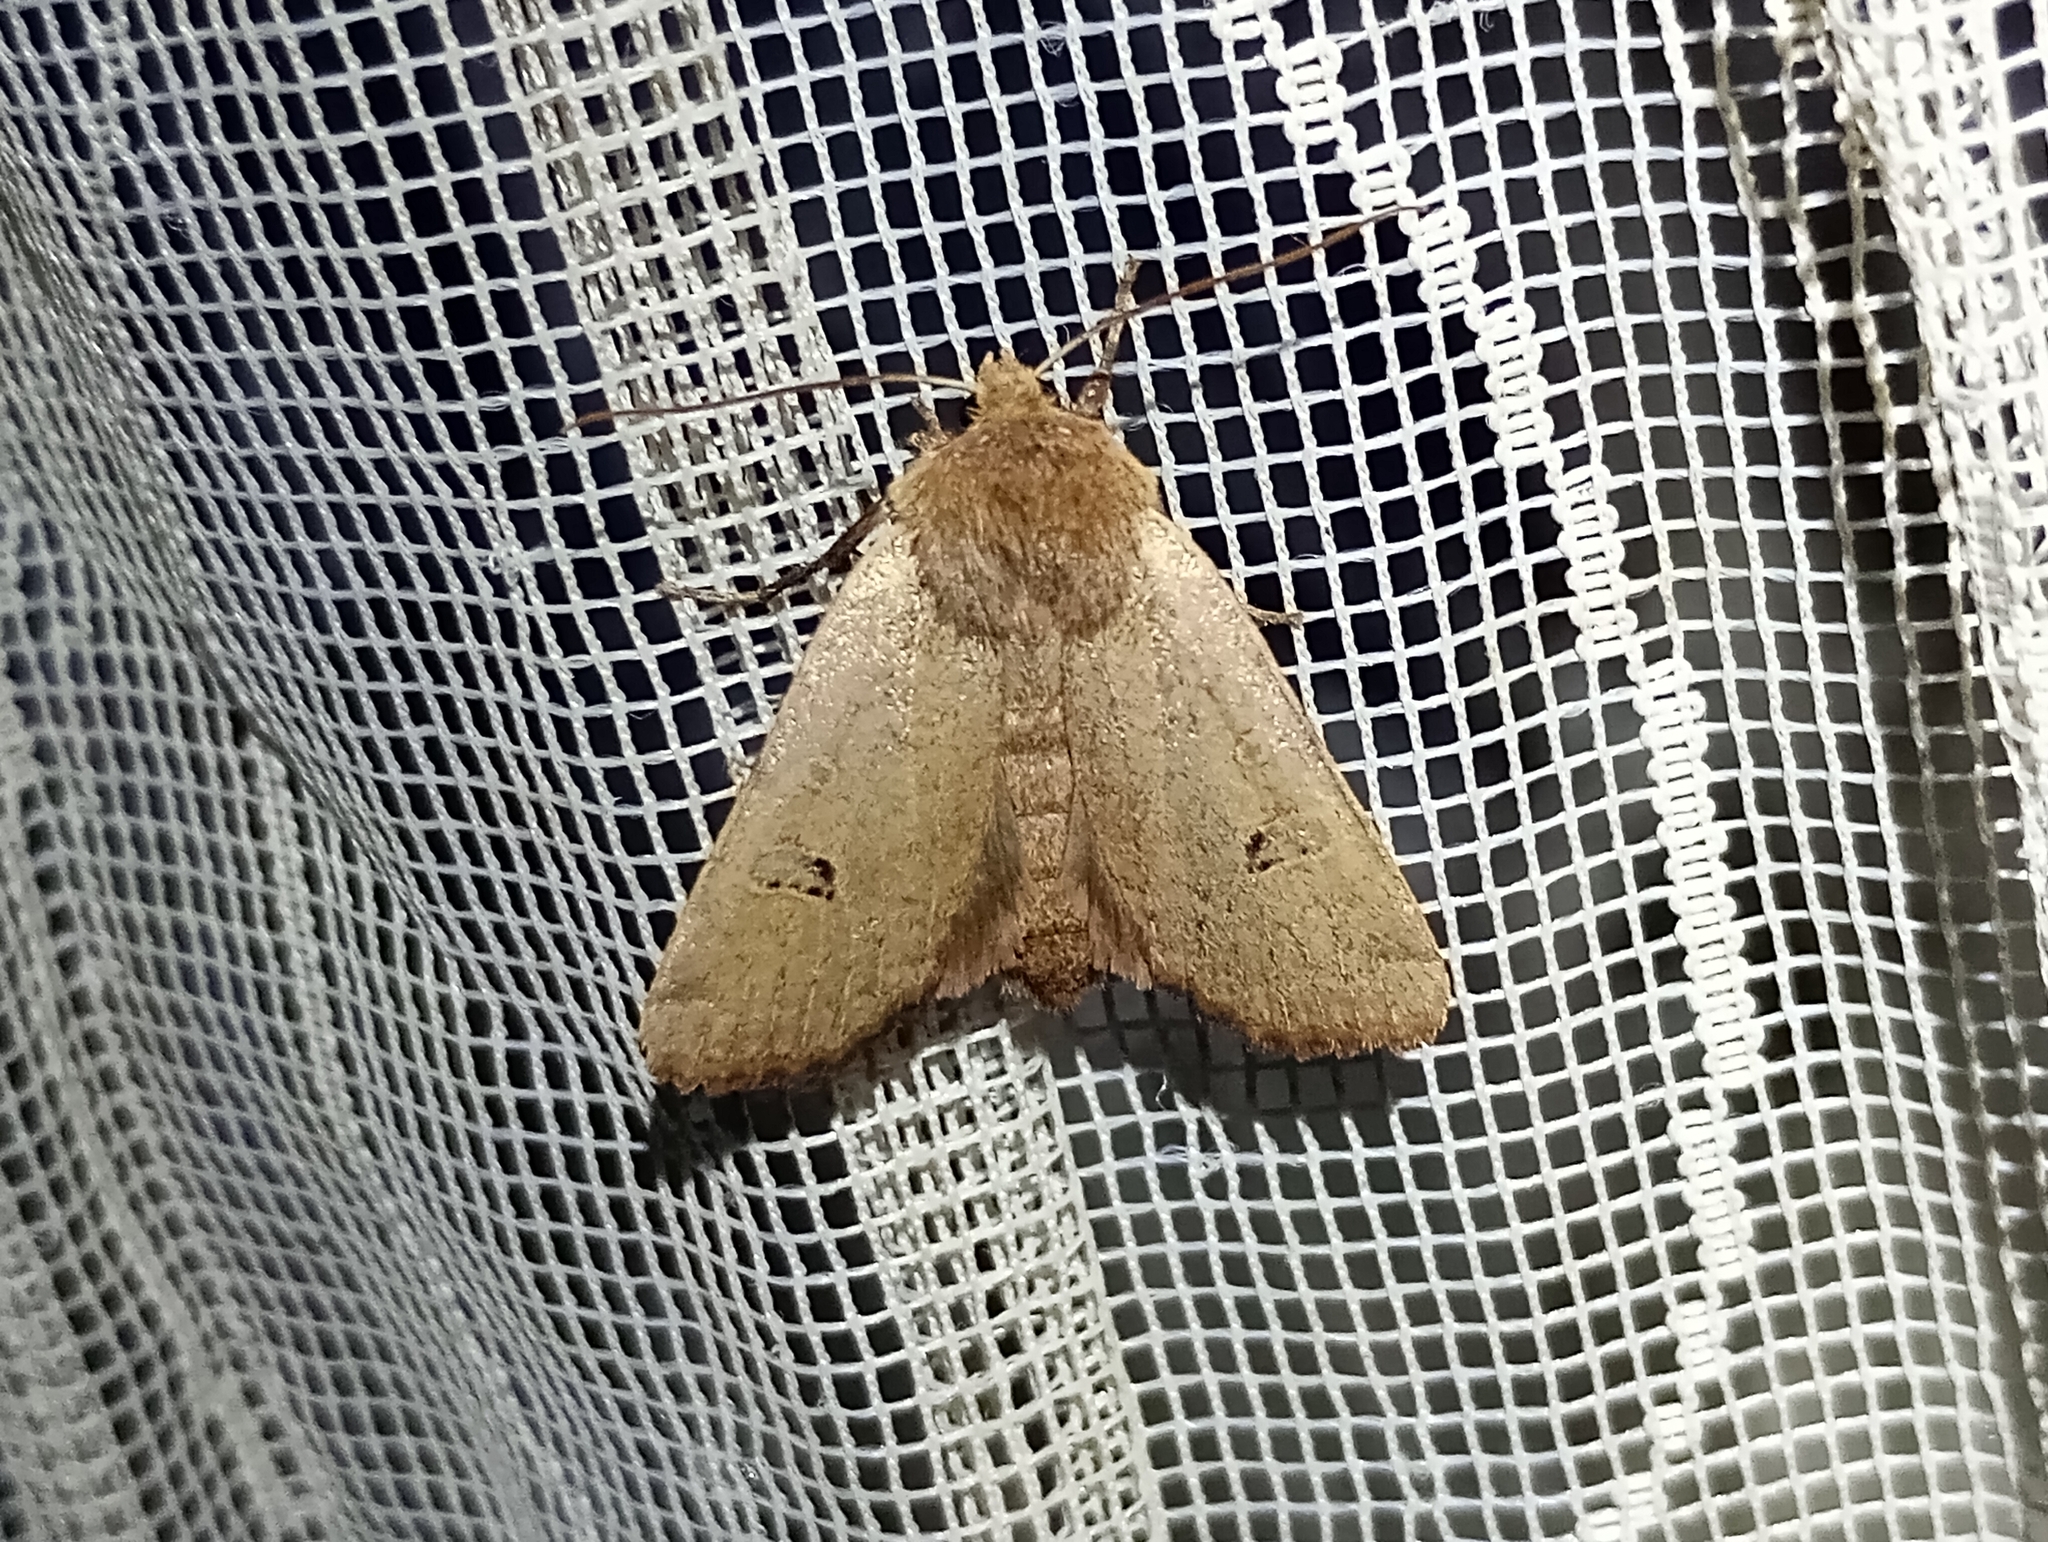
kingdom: Animalia
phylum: Arthropoda
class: Insecta
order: Lepidoptera
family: Noctuidae
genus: Conistra
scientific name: Conistra erythrocephala
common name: Red-headed chestnut
